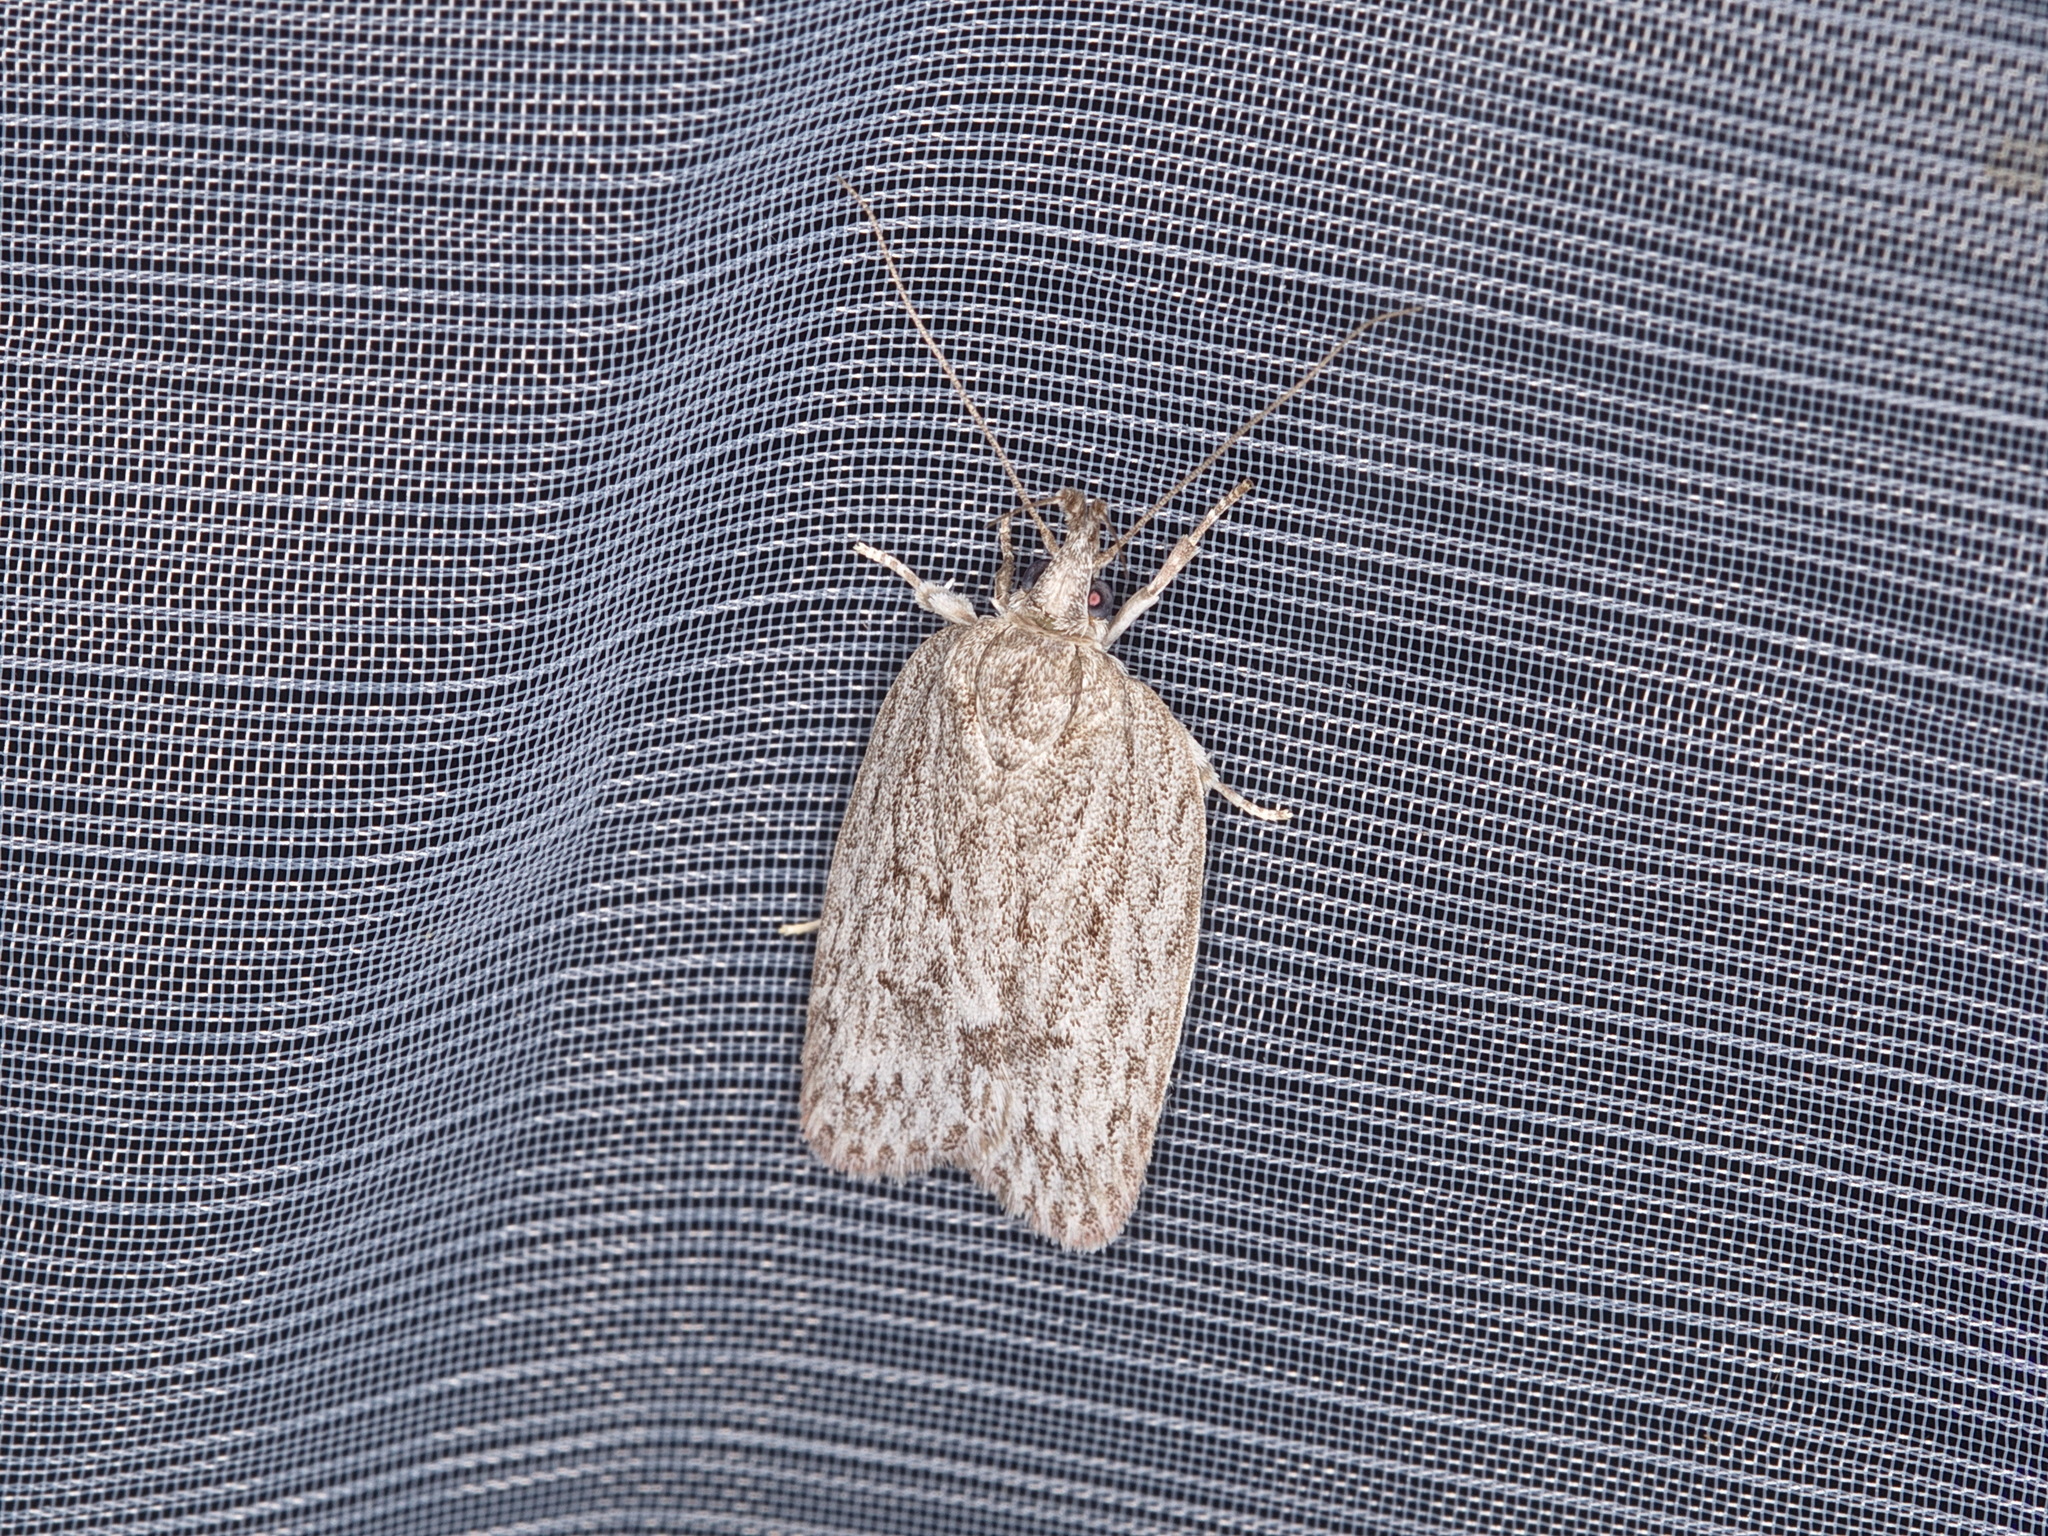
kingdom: Animalia
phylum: Arthropoda
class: Insecta
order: Lepidoptera
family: Depressariidae
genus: Pedois
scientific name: Pedois lewinella
